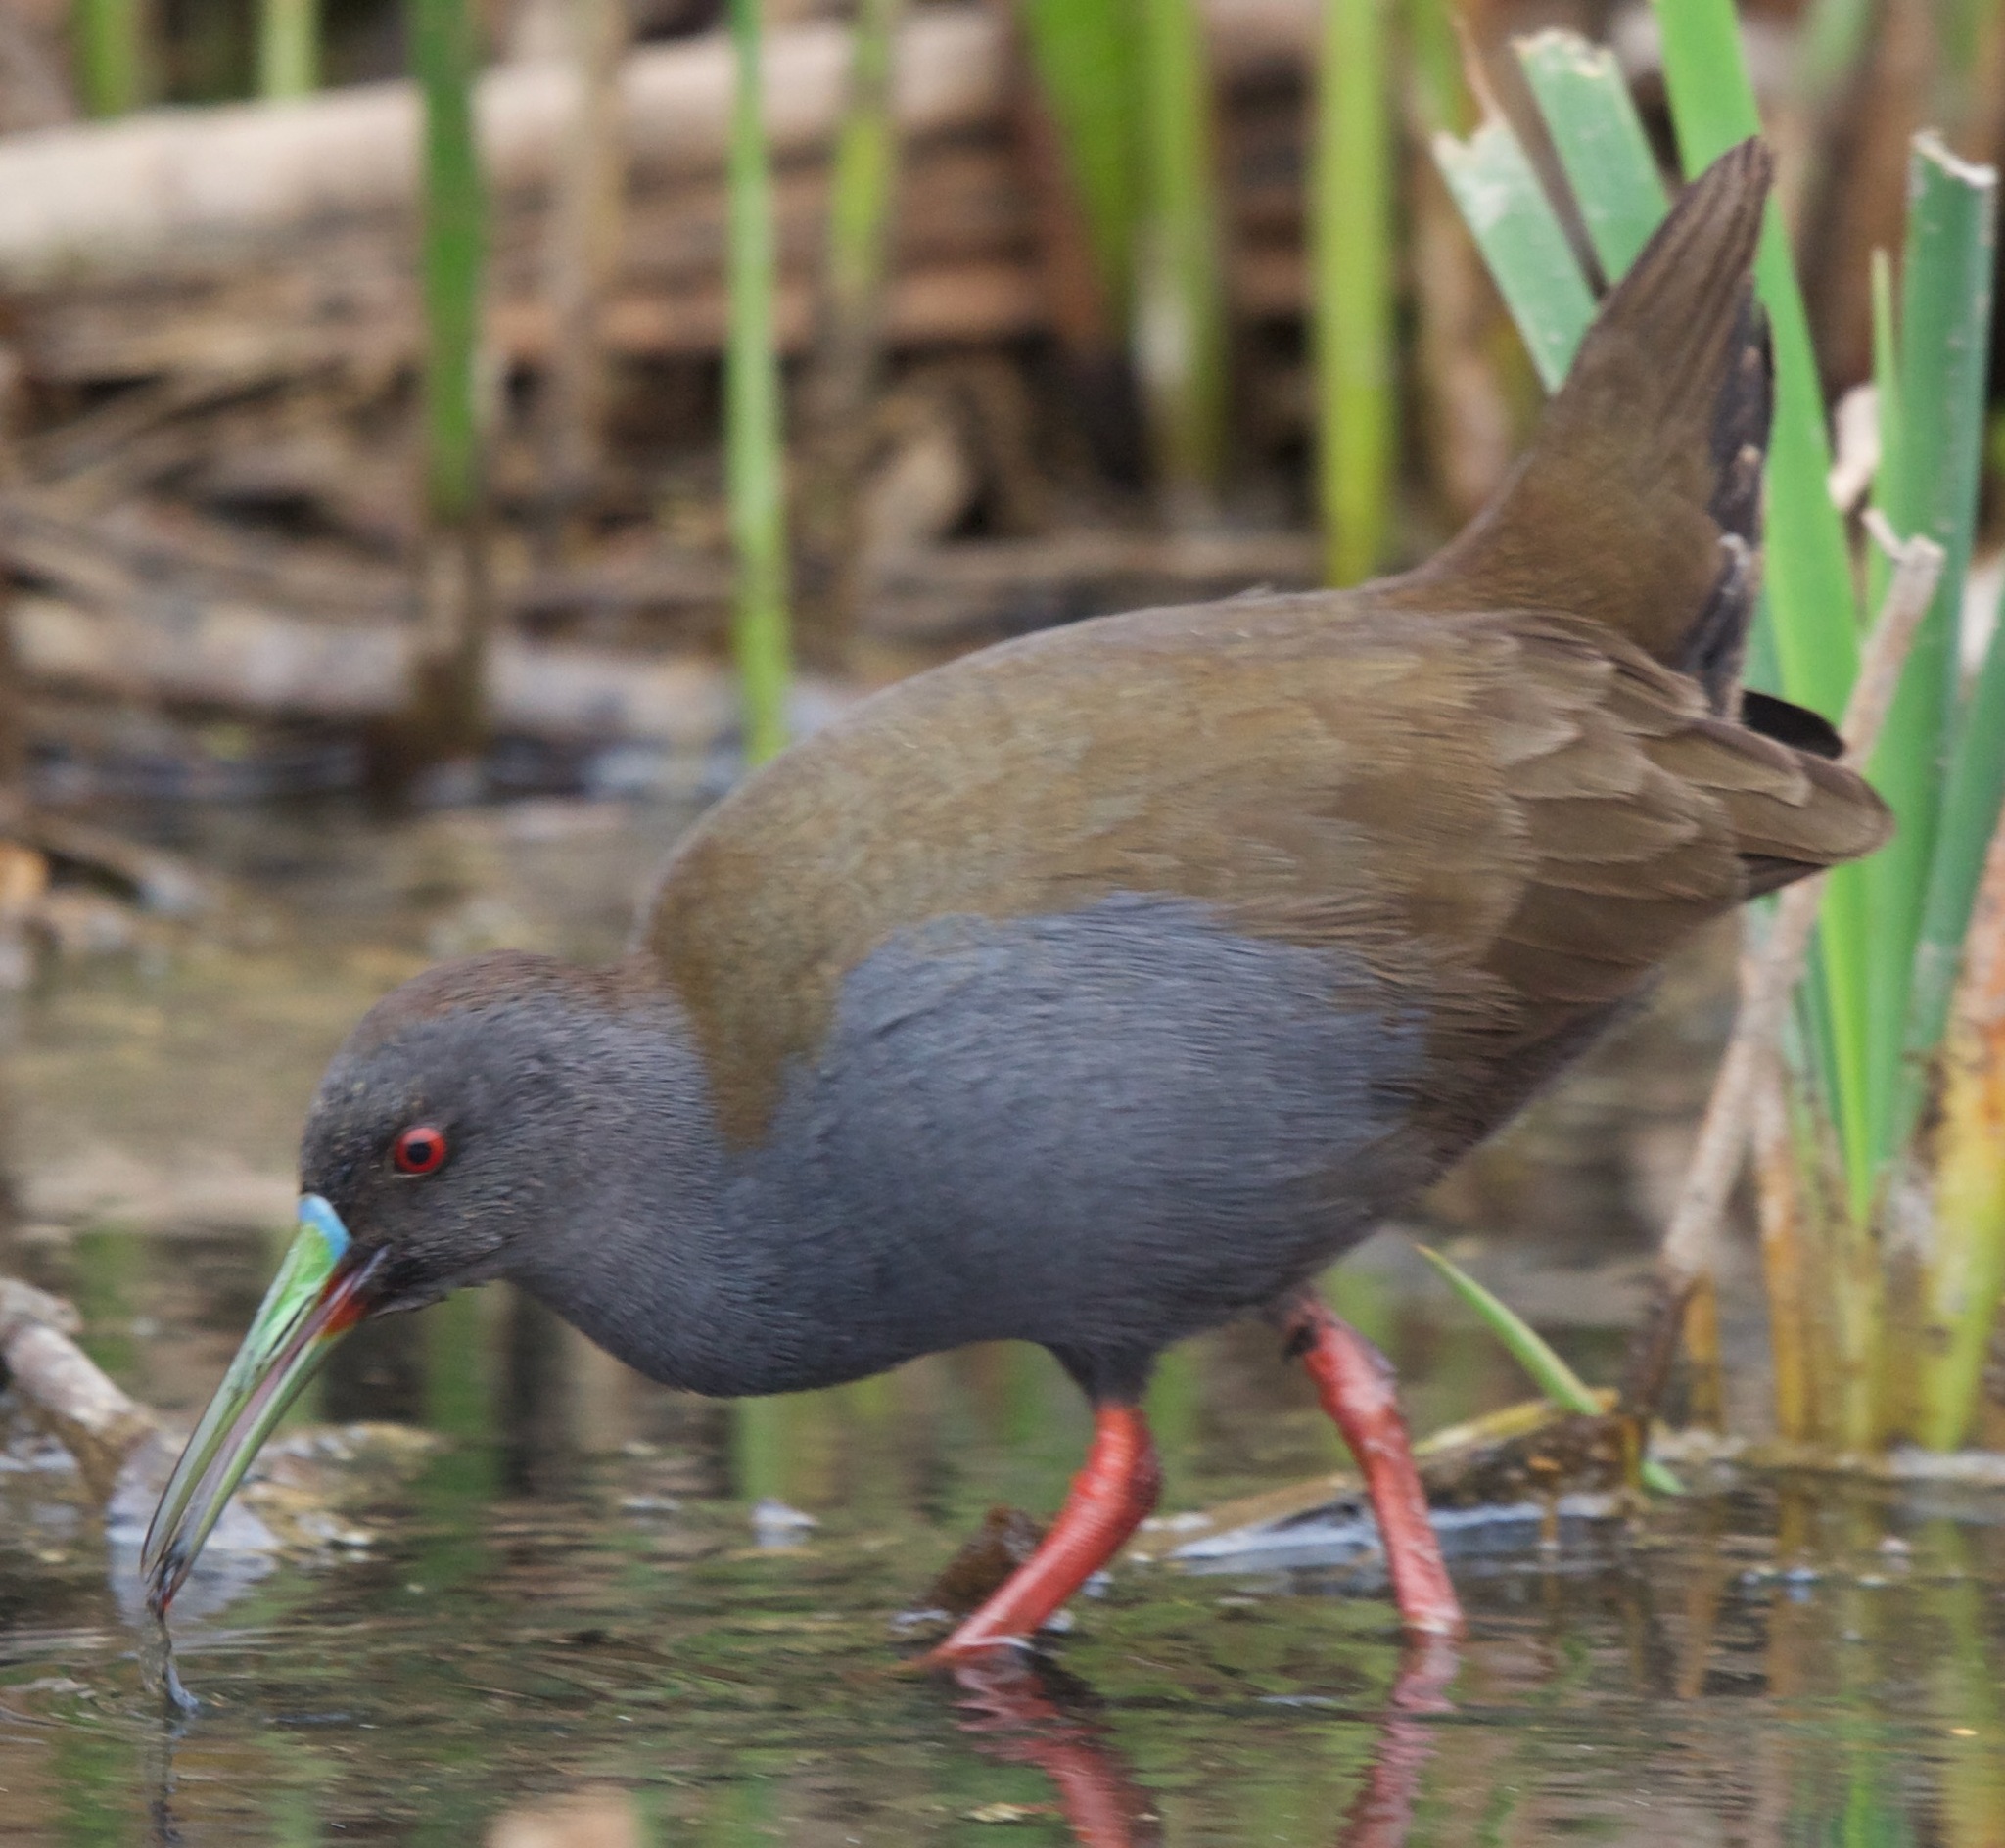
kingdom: Animalia
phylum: Chordata
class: Aves
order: Gruiformes
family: Rallidae
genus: Pardirallus
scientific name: Pardirallus sanguinolentus
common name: Plumbeous rail
